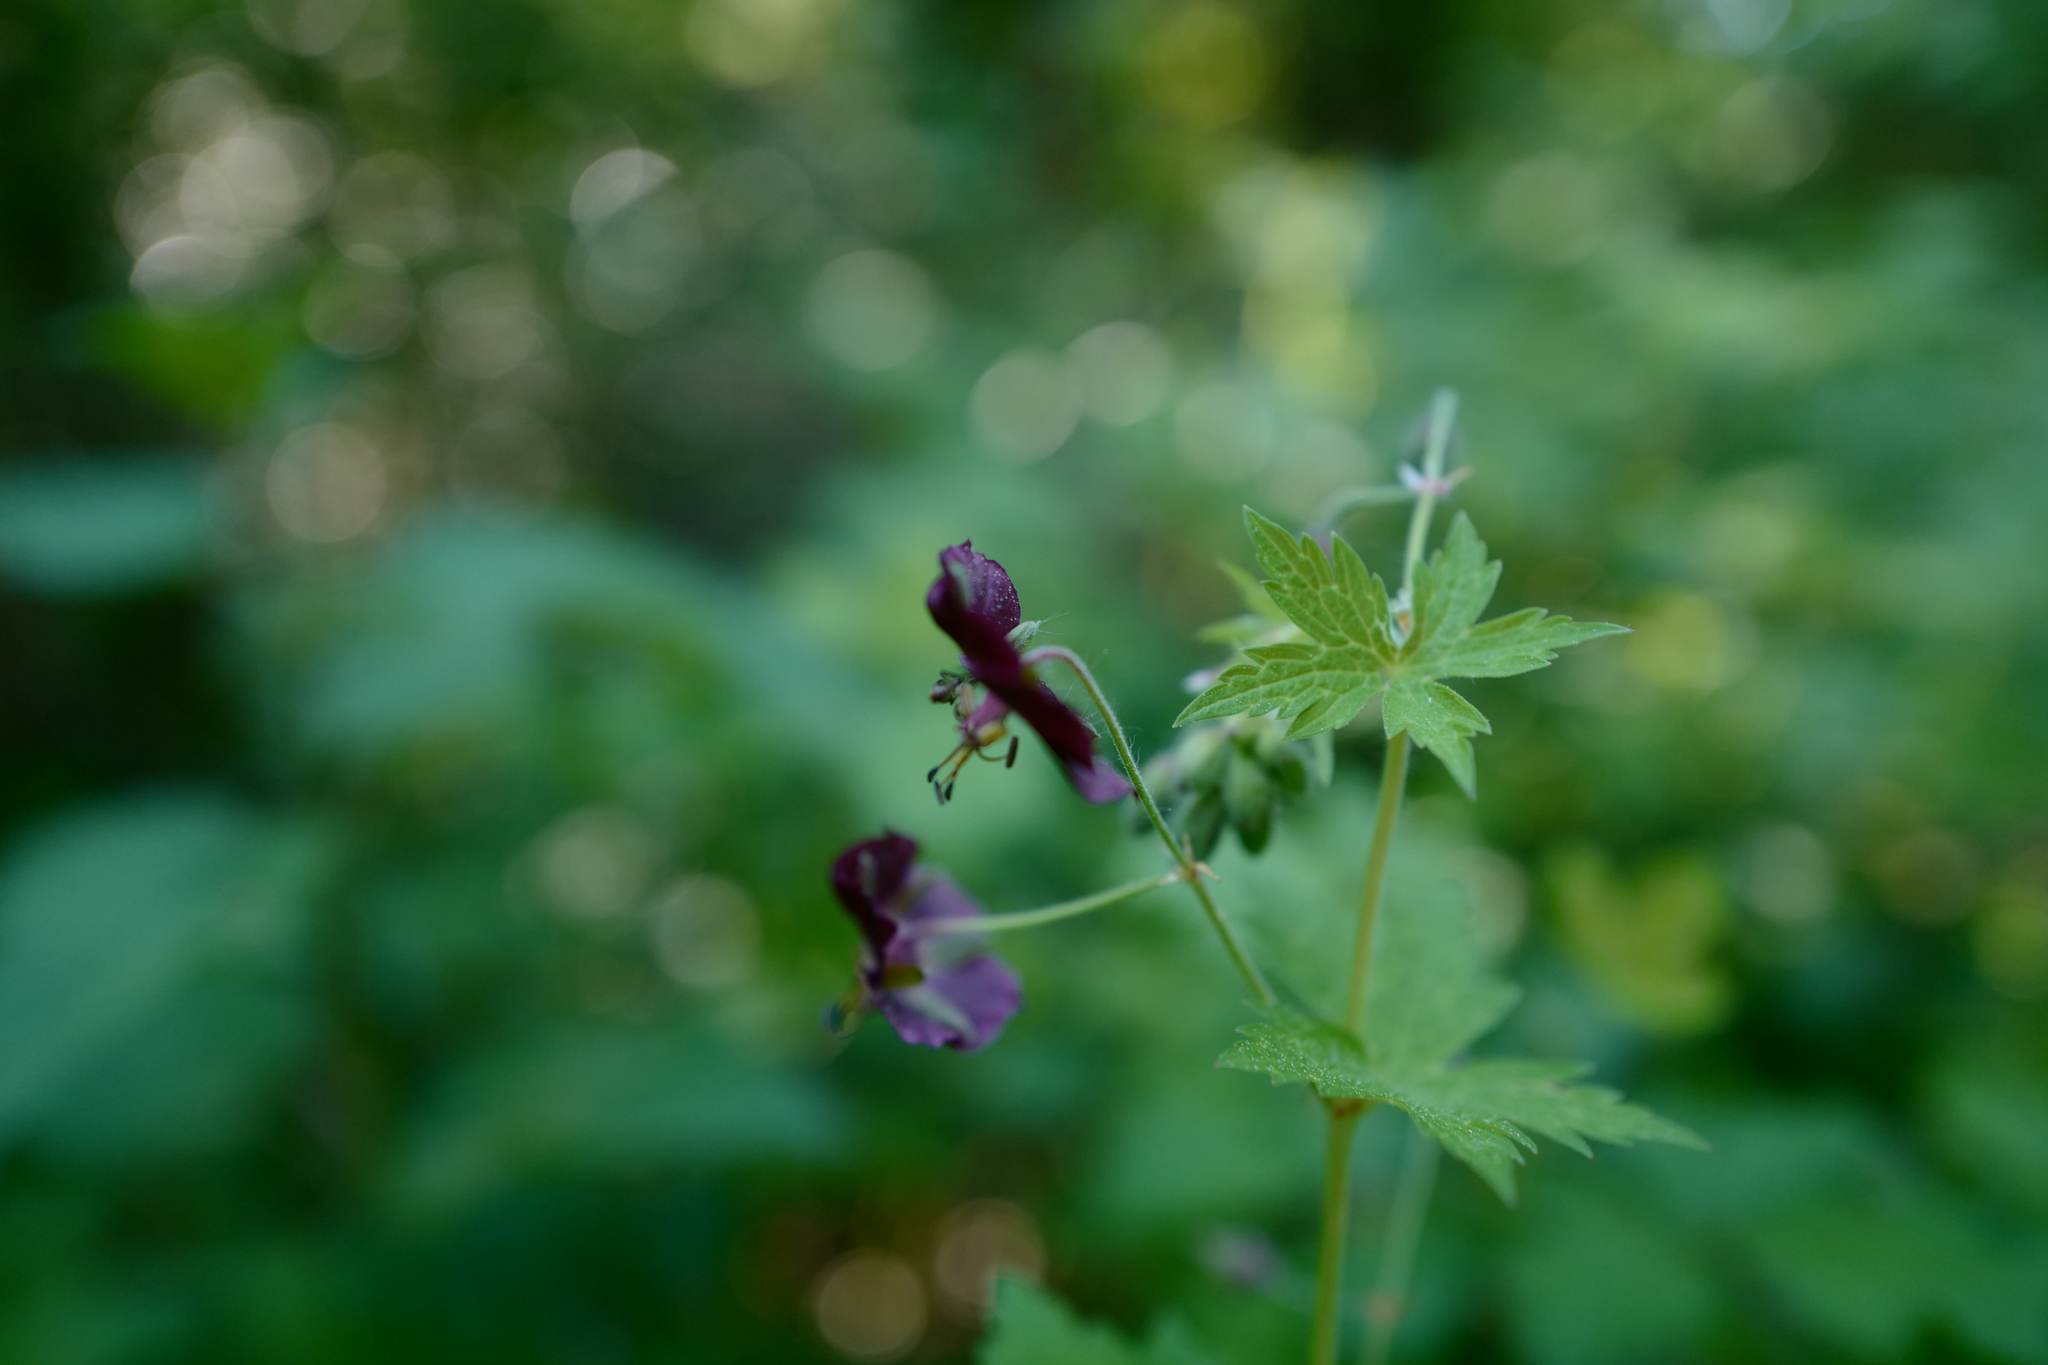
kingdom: Plantae
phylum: Tracheophyta
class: Magnoliopsida
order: Geraniales
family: Geraniaceae
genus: Geranium
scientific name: Geranium phaeum
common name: Dusky crane's-bill
